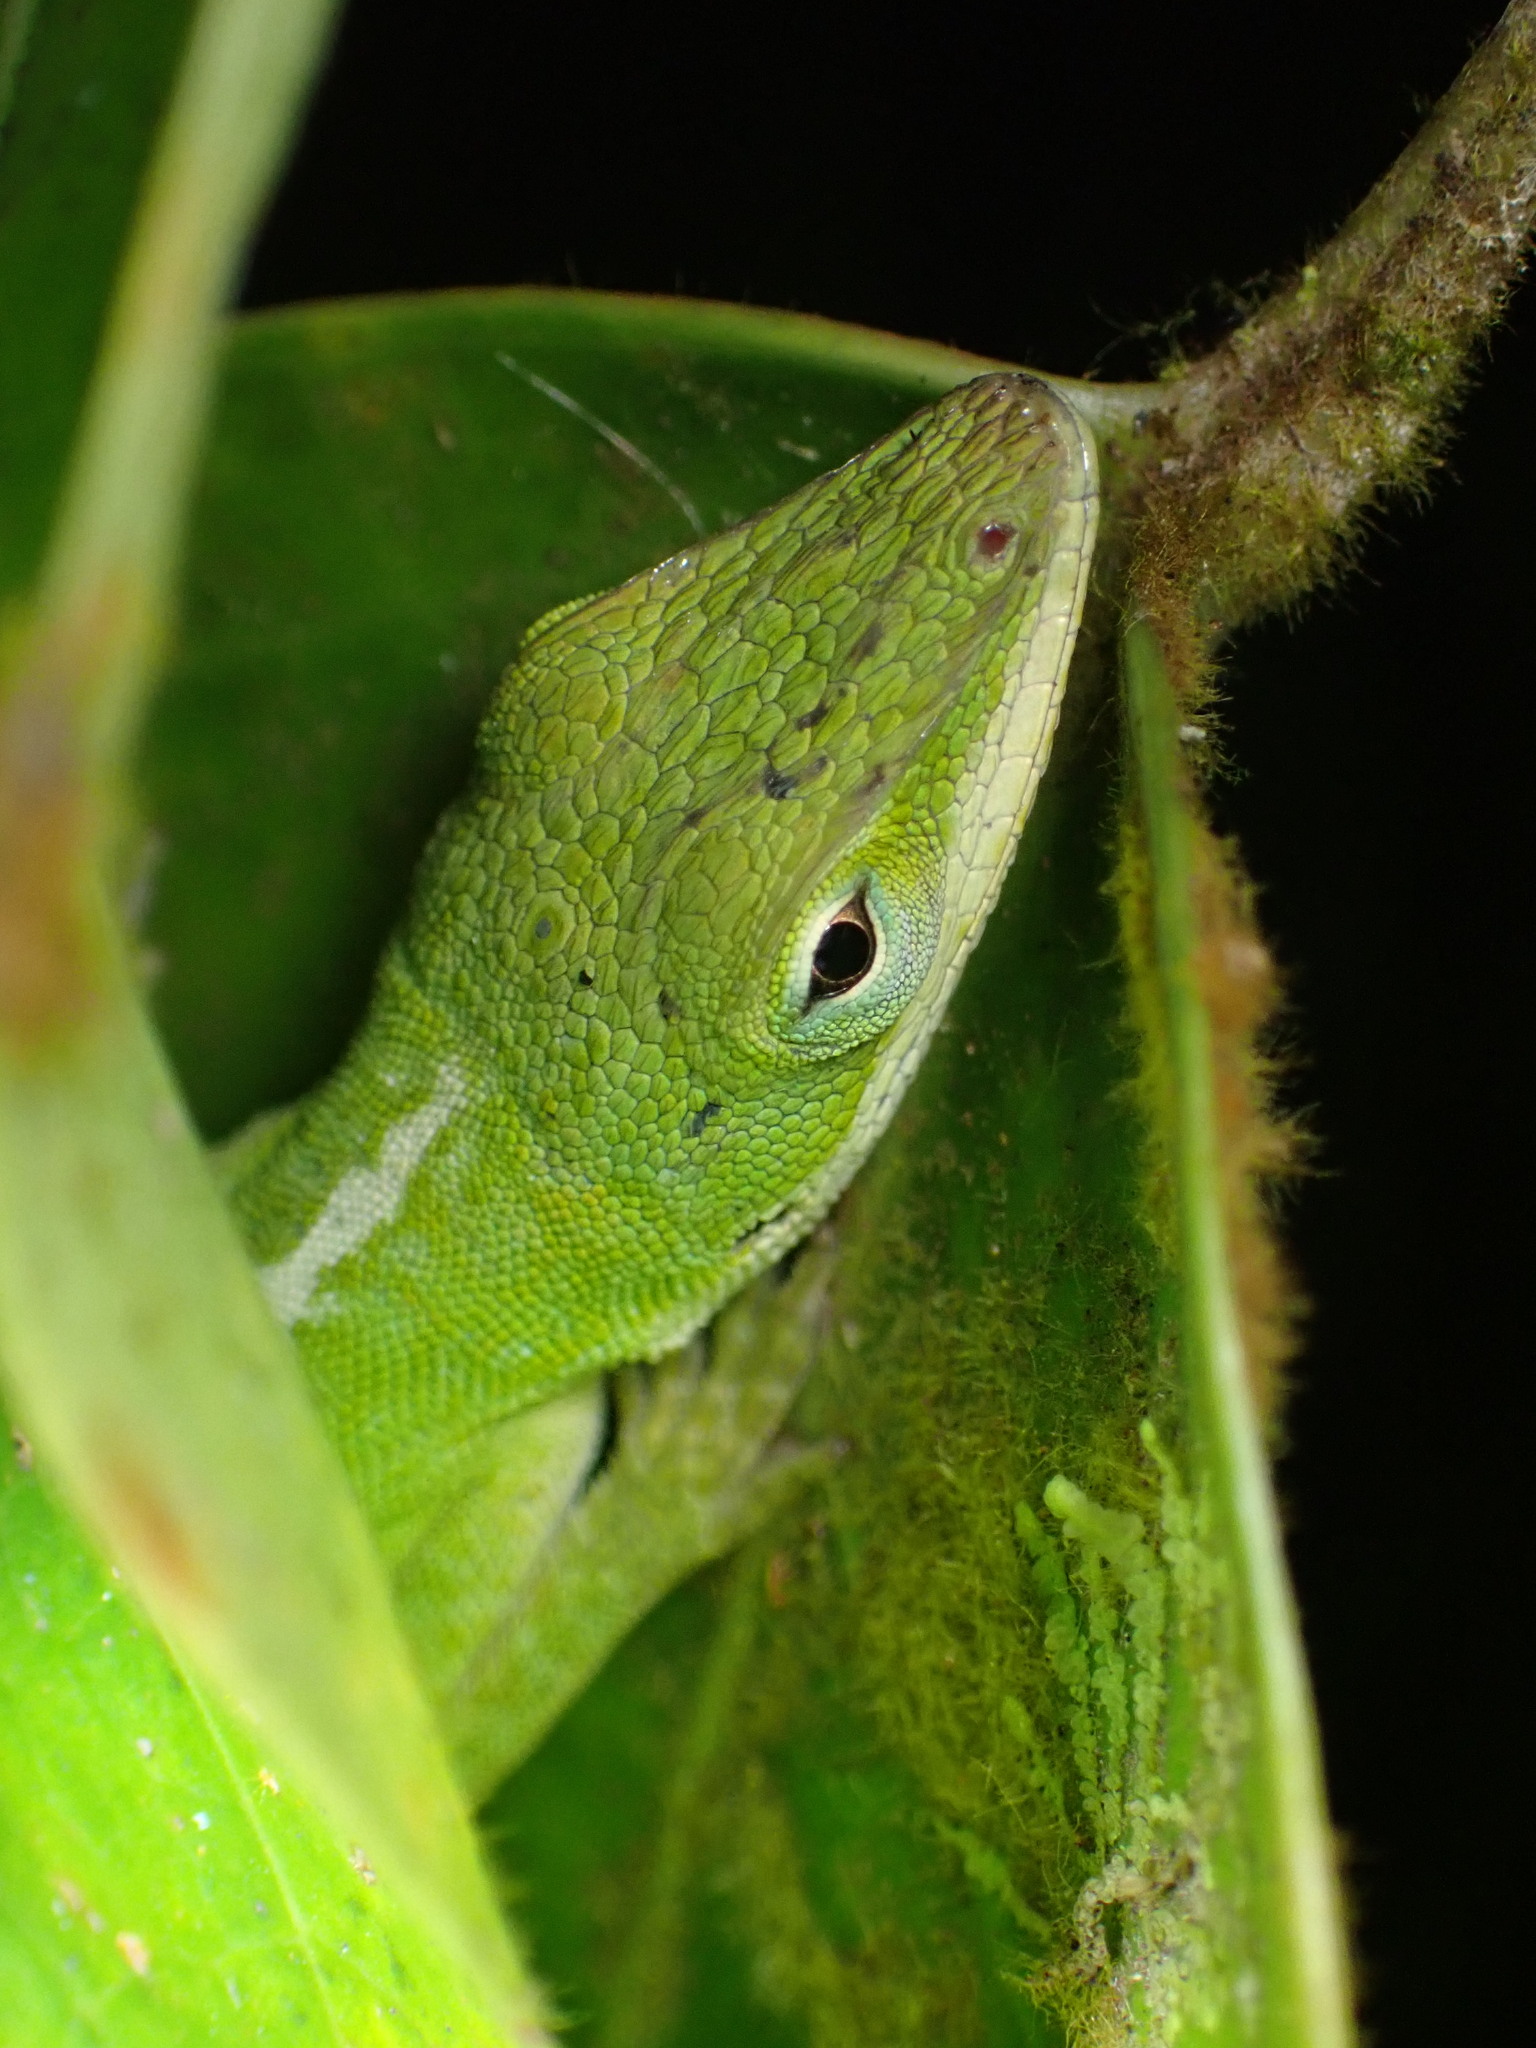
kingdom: Animalia
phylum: Chordata
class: Squamata
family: Dactyloidae
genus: Anolis
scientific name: Anolis carolinensis
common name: Green anole
